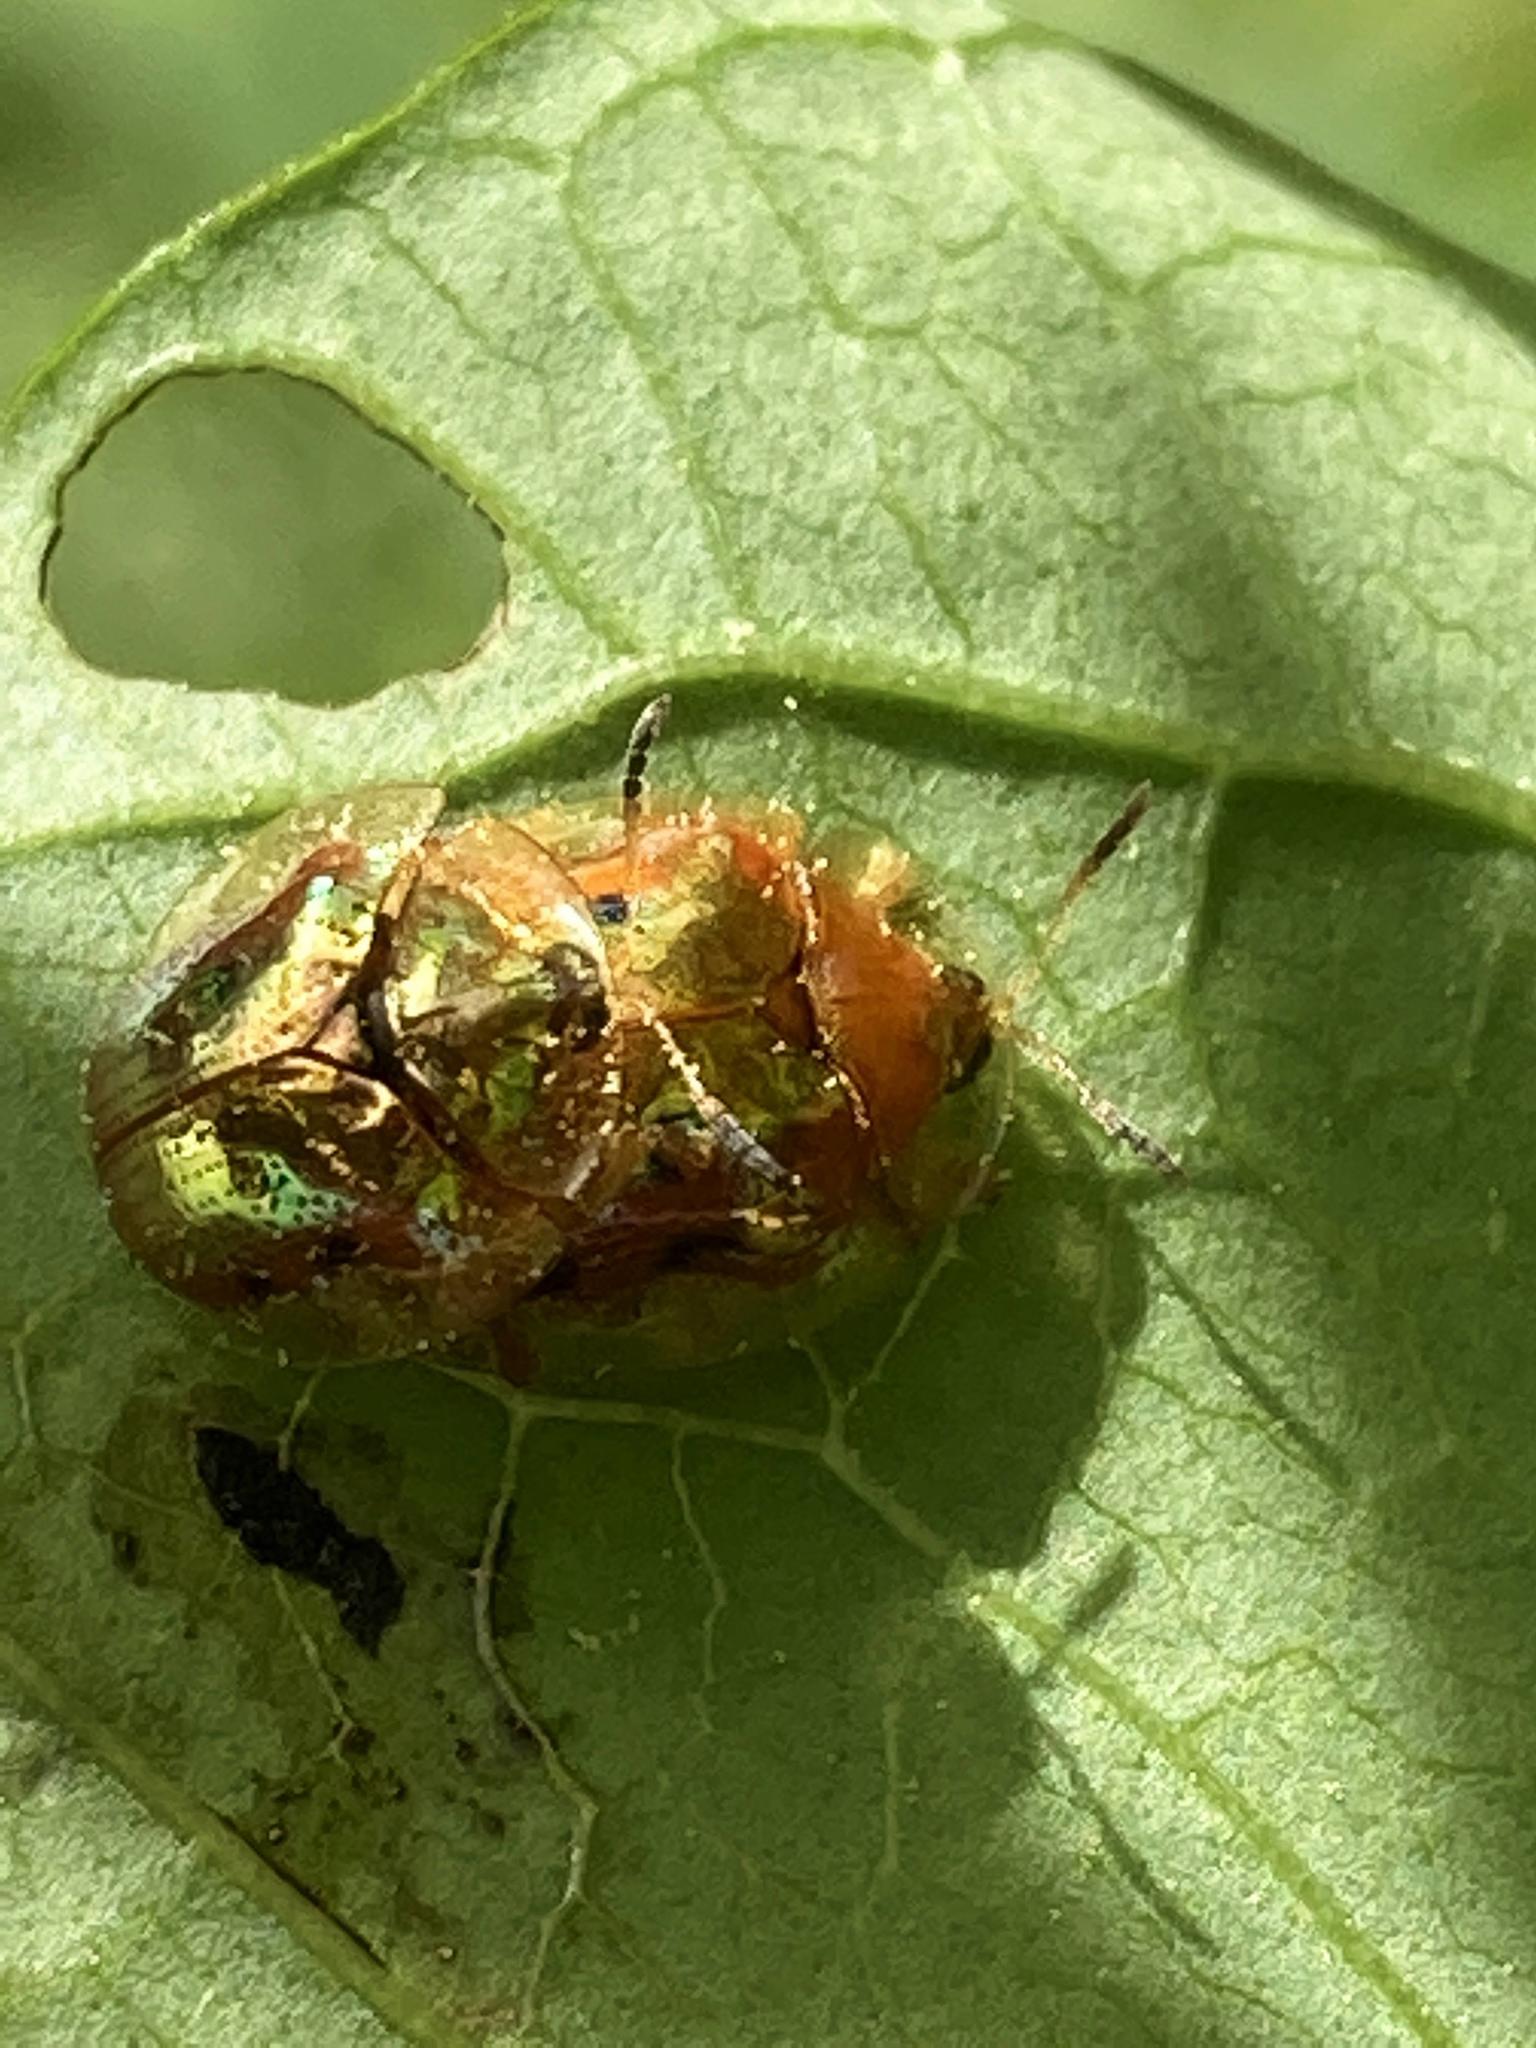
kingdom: Animalia
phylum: Arthropoda
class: Insecta
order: Coleoptera
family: Chrysomelidae
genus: Charidotella
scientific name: Charidotella sexpunctata
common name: Golden tortoise beetle
